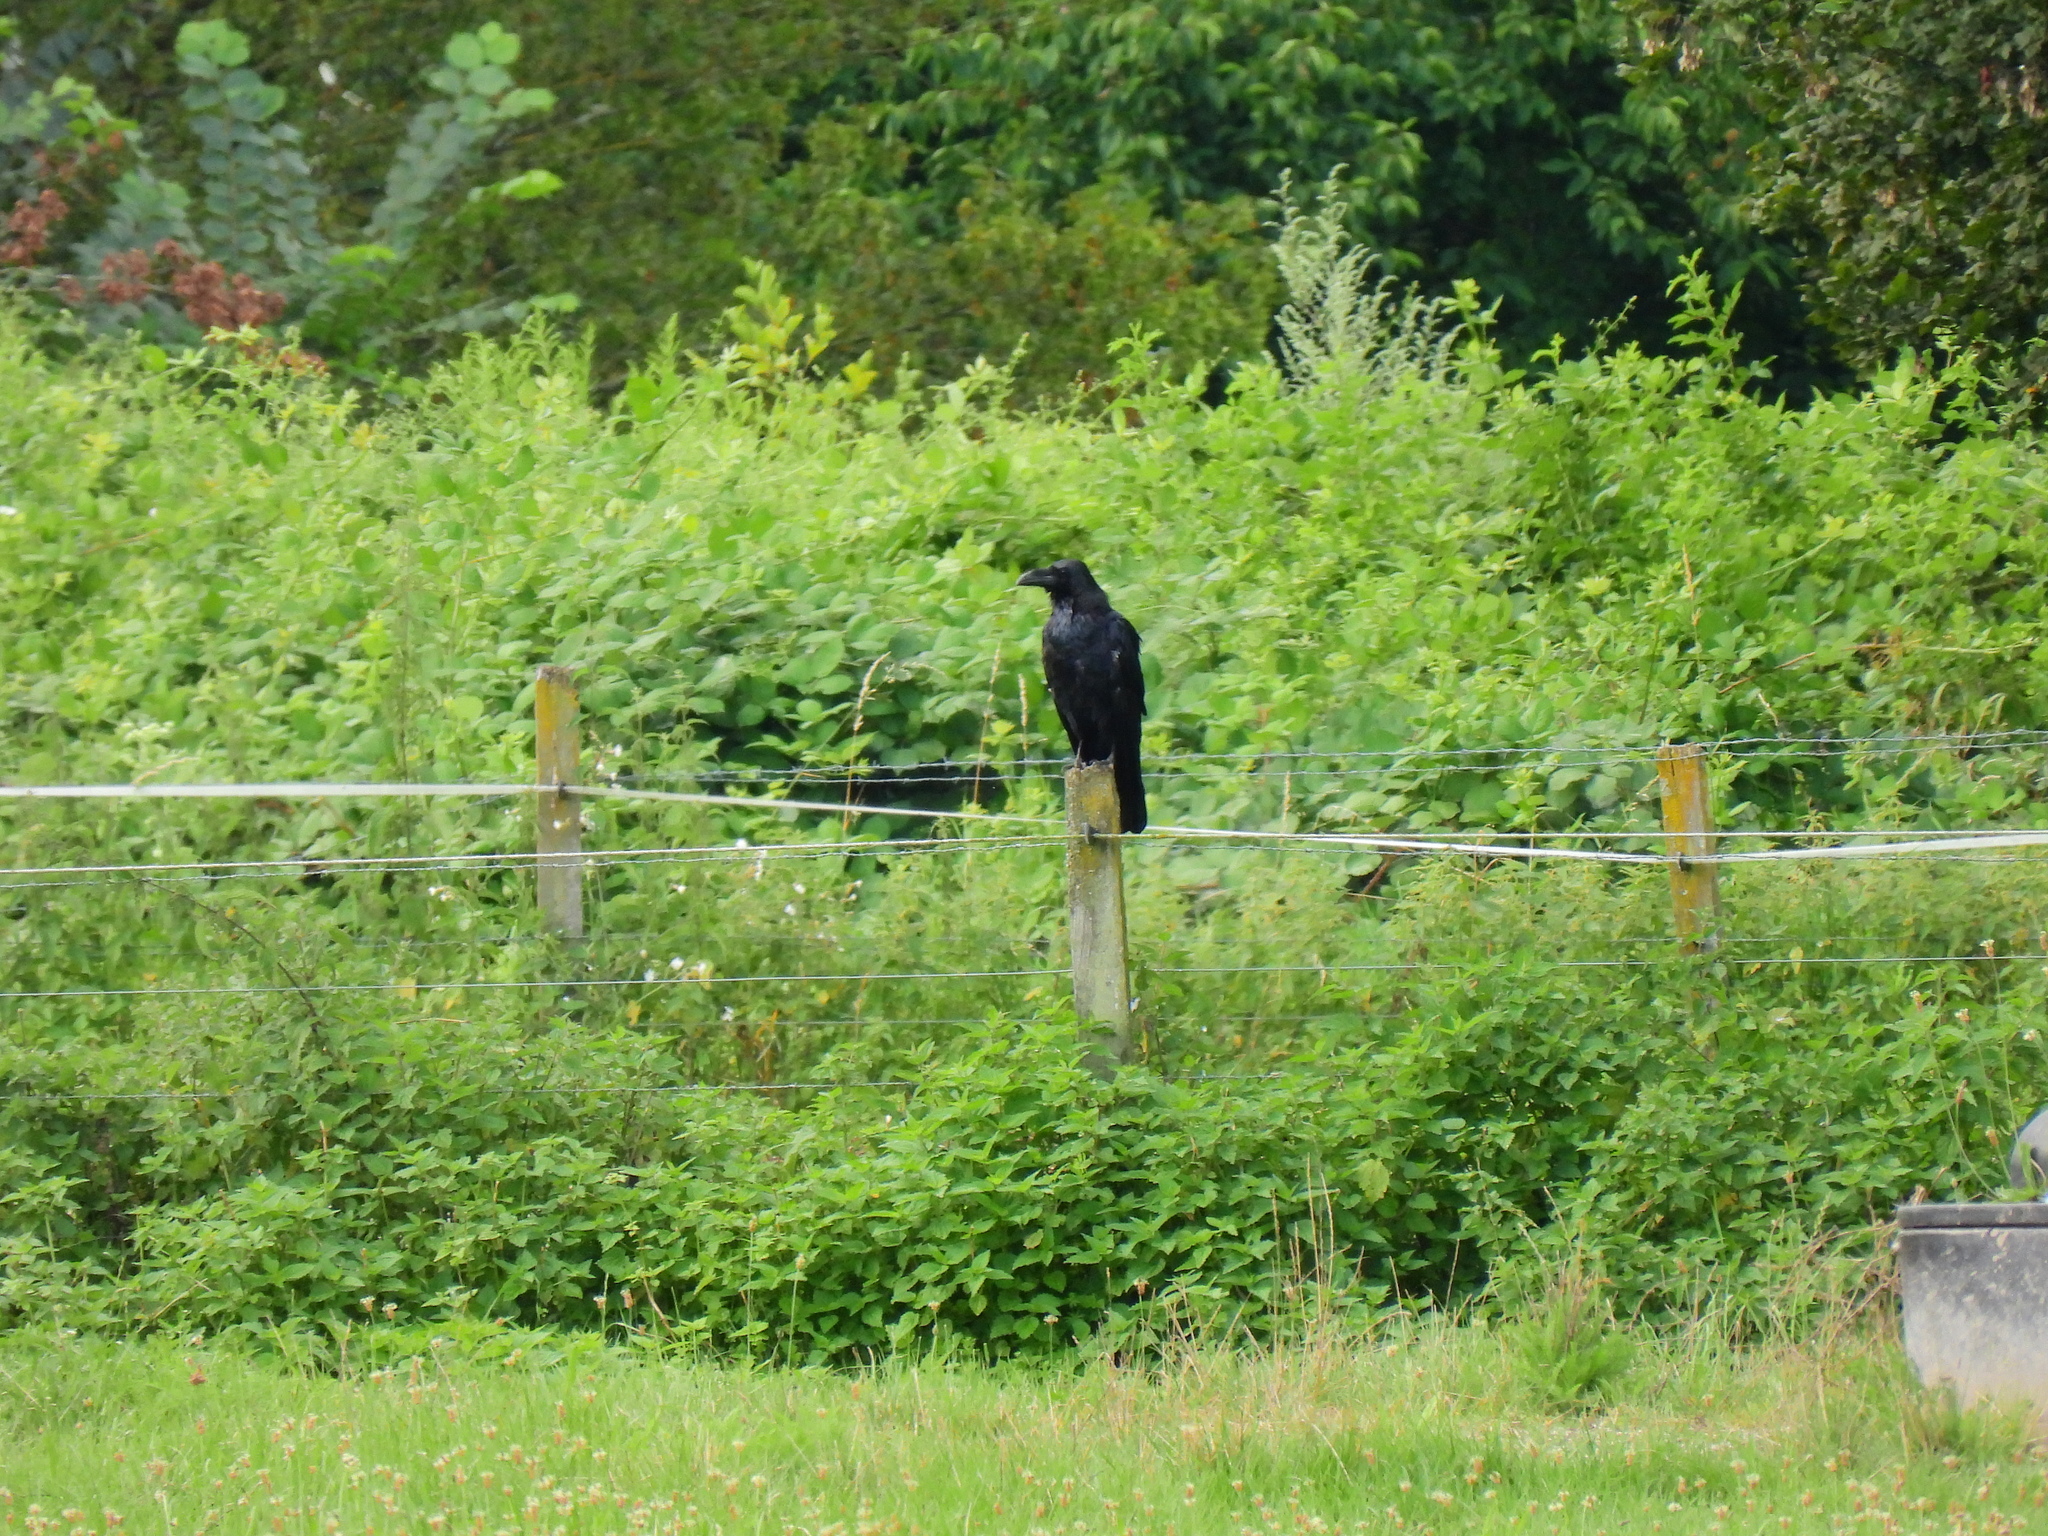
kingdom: Animalia
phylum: Chordata
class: Aves
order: Passeriformes
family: Corvidae
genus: Corvus
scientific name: Corvus corax
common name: Common raven
